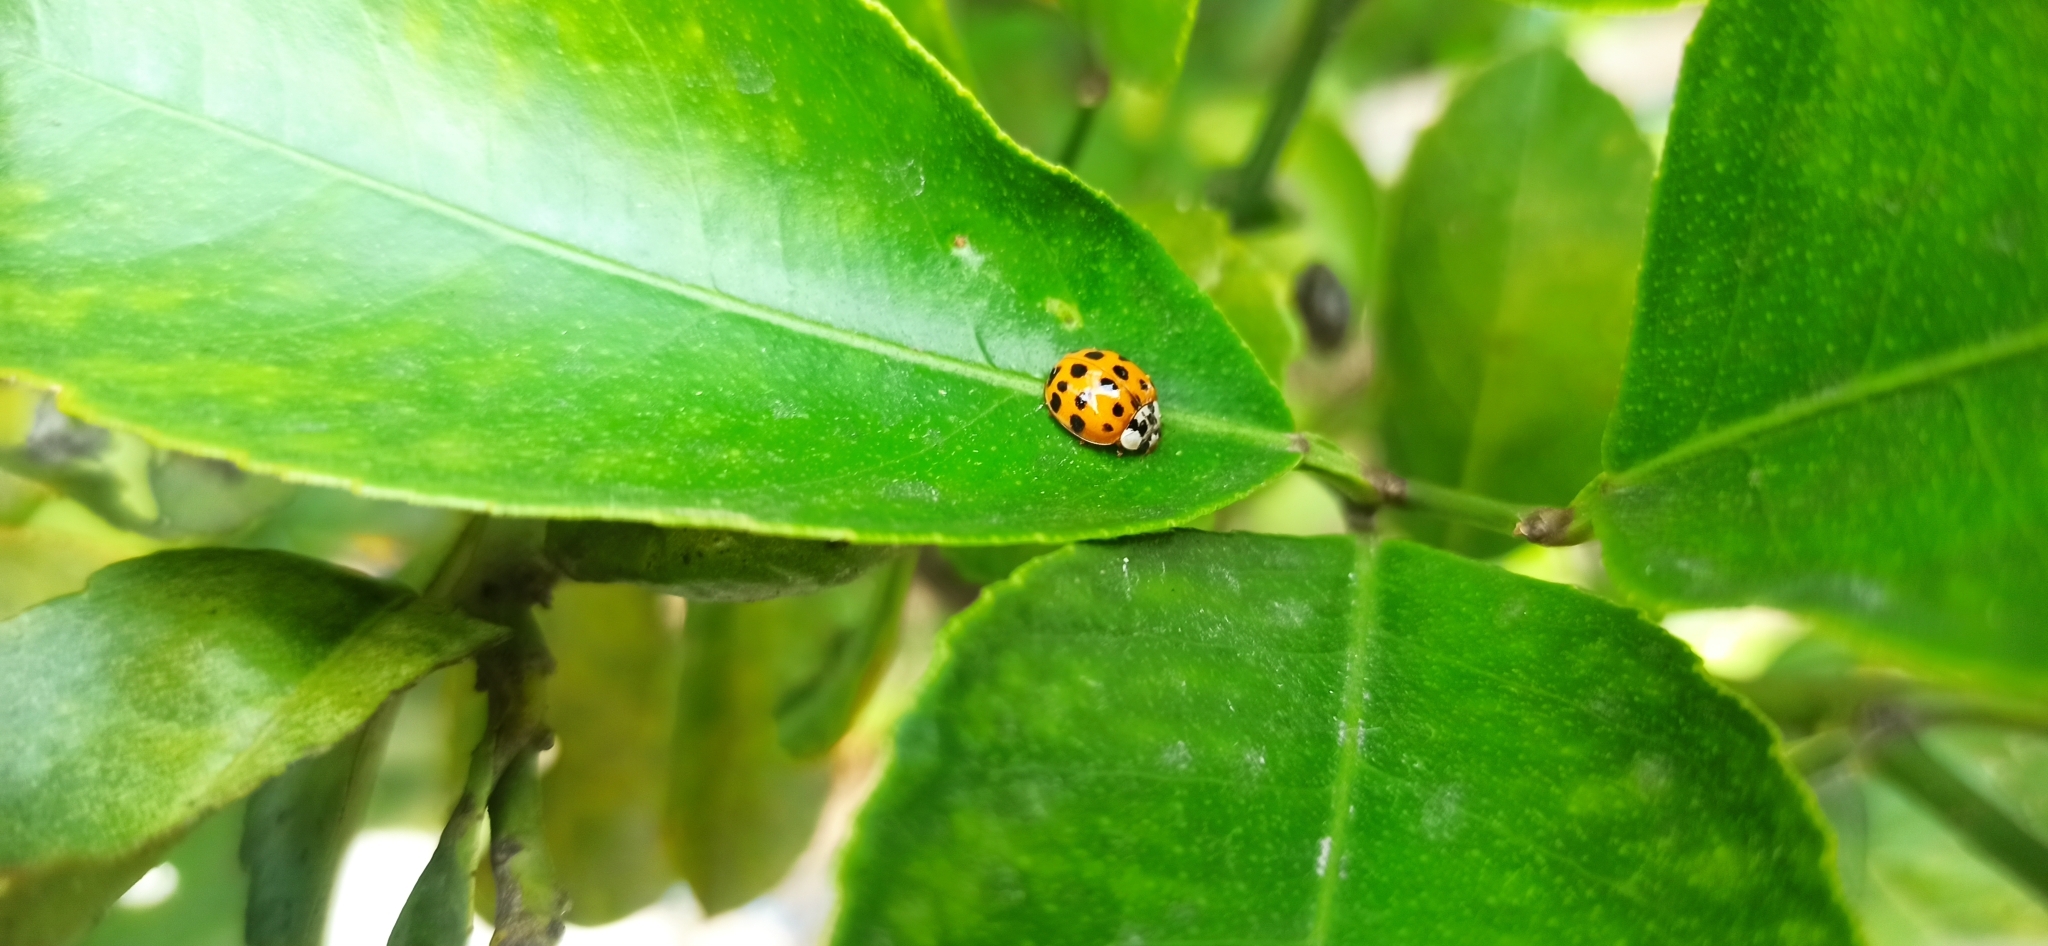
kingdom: Animalia
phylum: Arthropoda
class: Insecta
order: Coleoptera
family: Coccinellidae
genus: Harmonia
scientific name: Harmonia axyridis
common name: Harlequin ladybird
